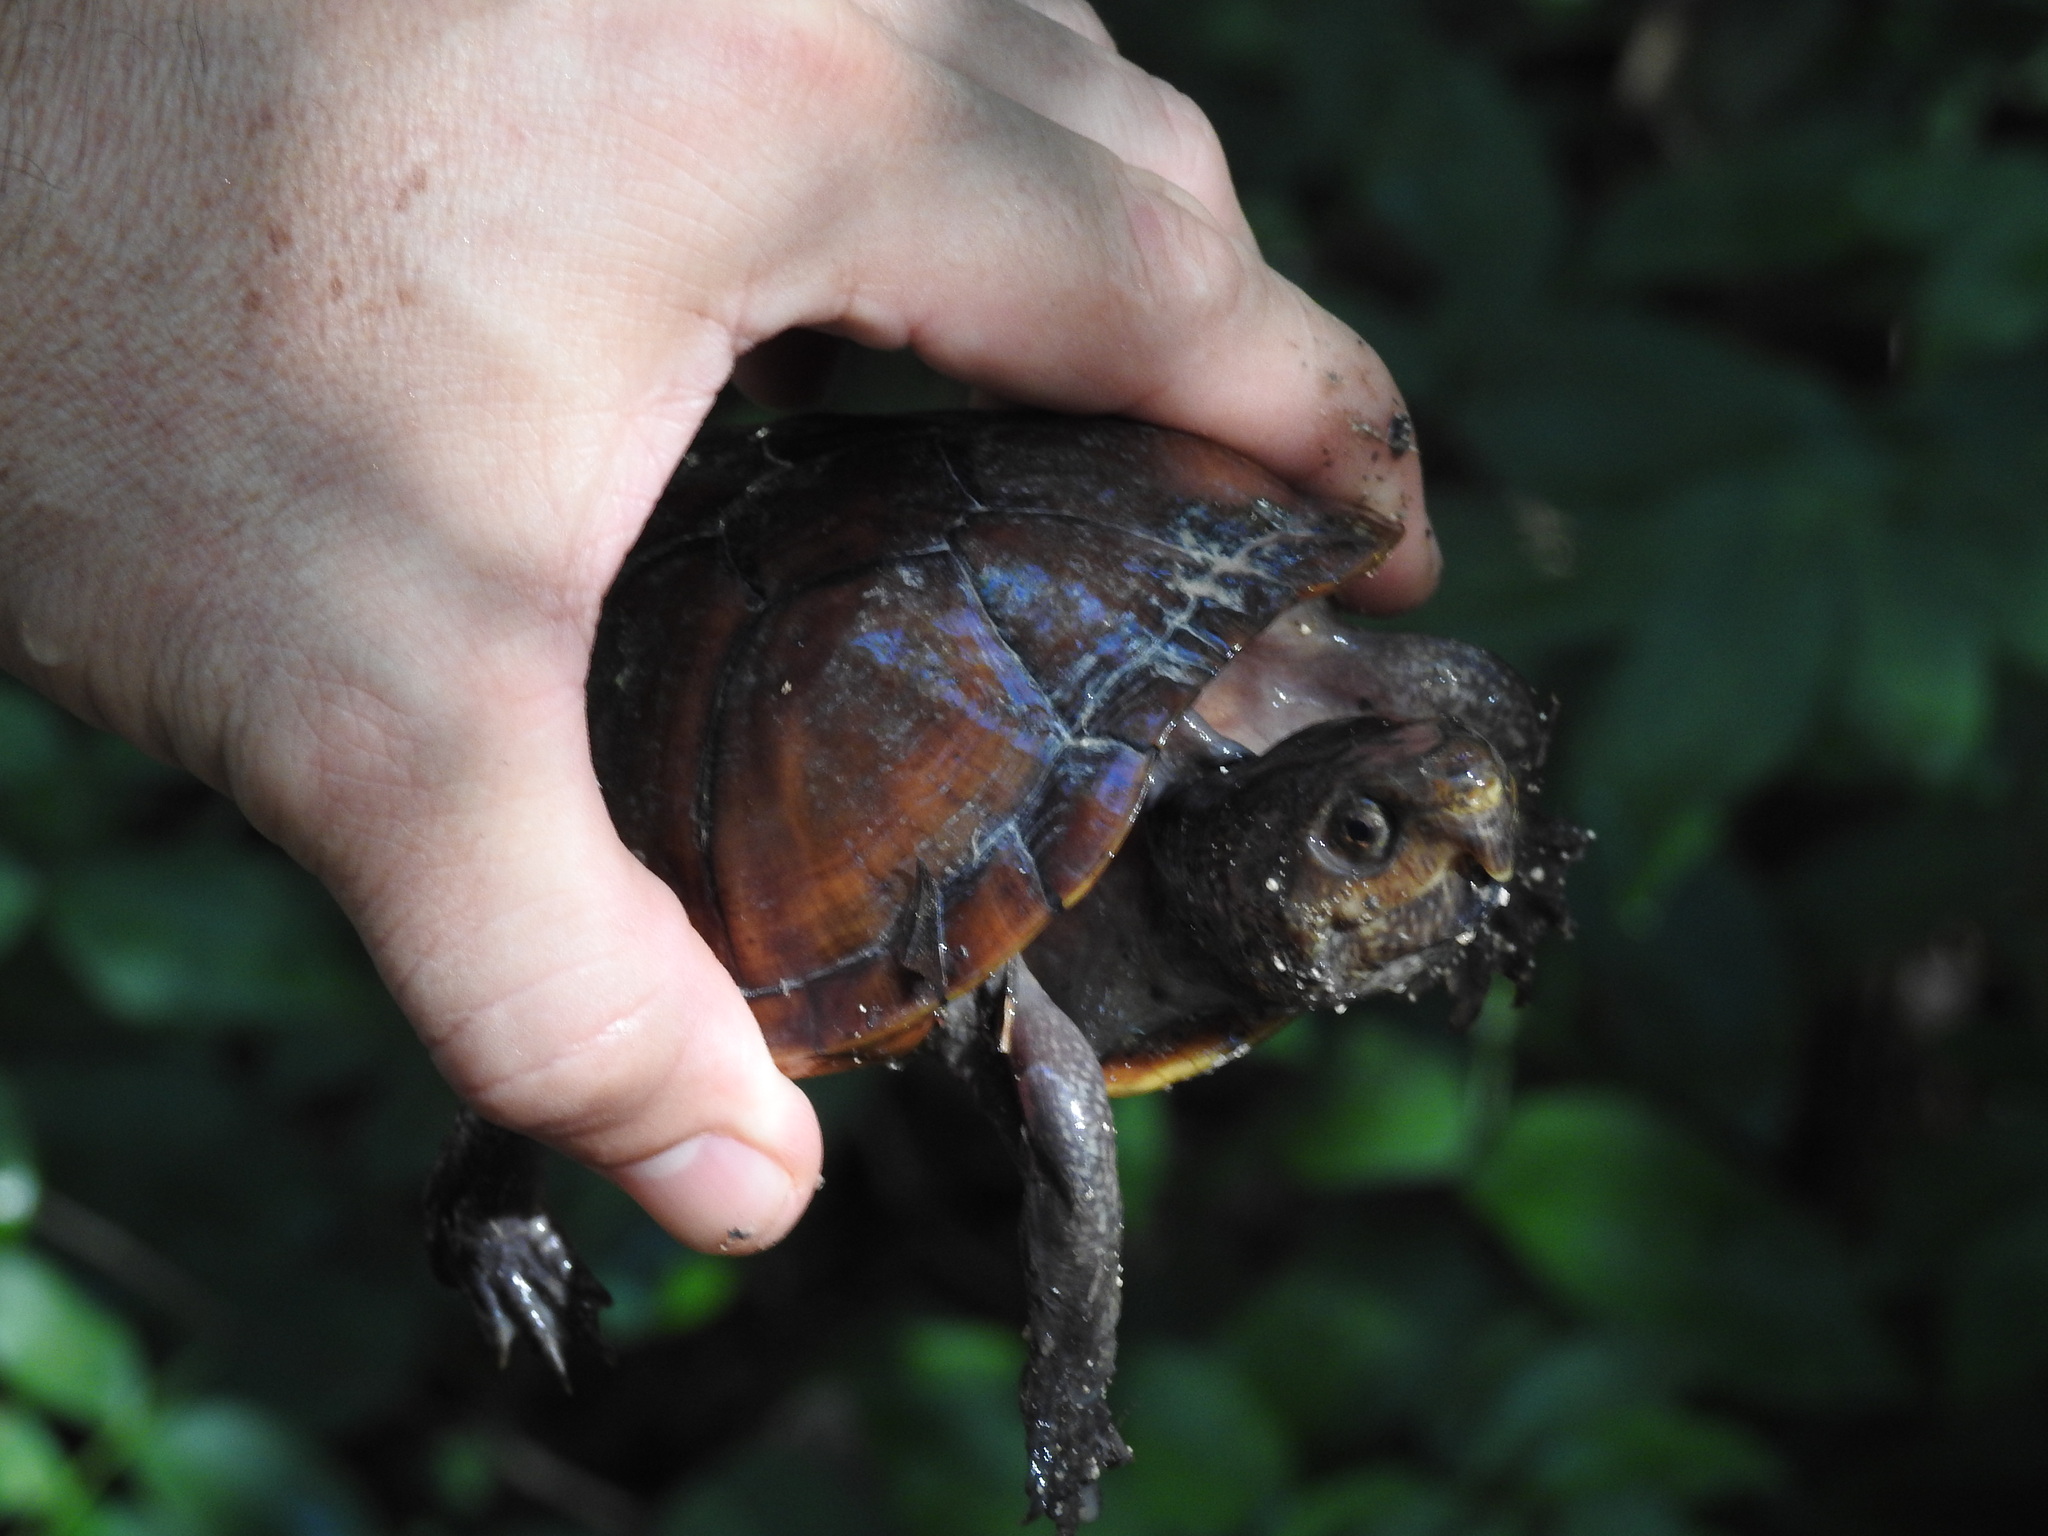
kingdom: Animalia
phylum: Chordata
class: Testudines
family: Kinosternidae
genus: Kinosternon
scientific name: Kinosternon creaseri
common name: Creaser's mud turtle
